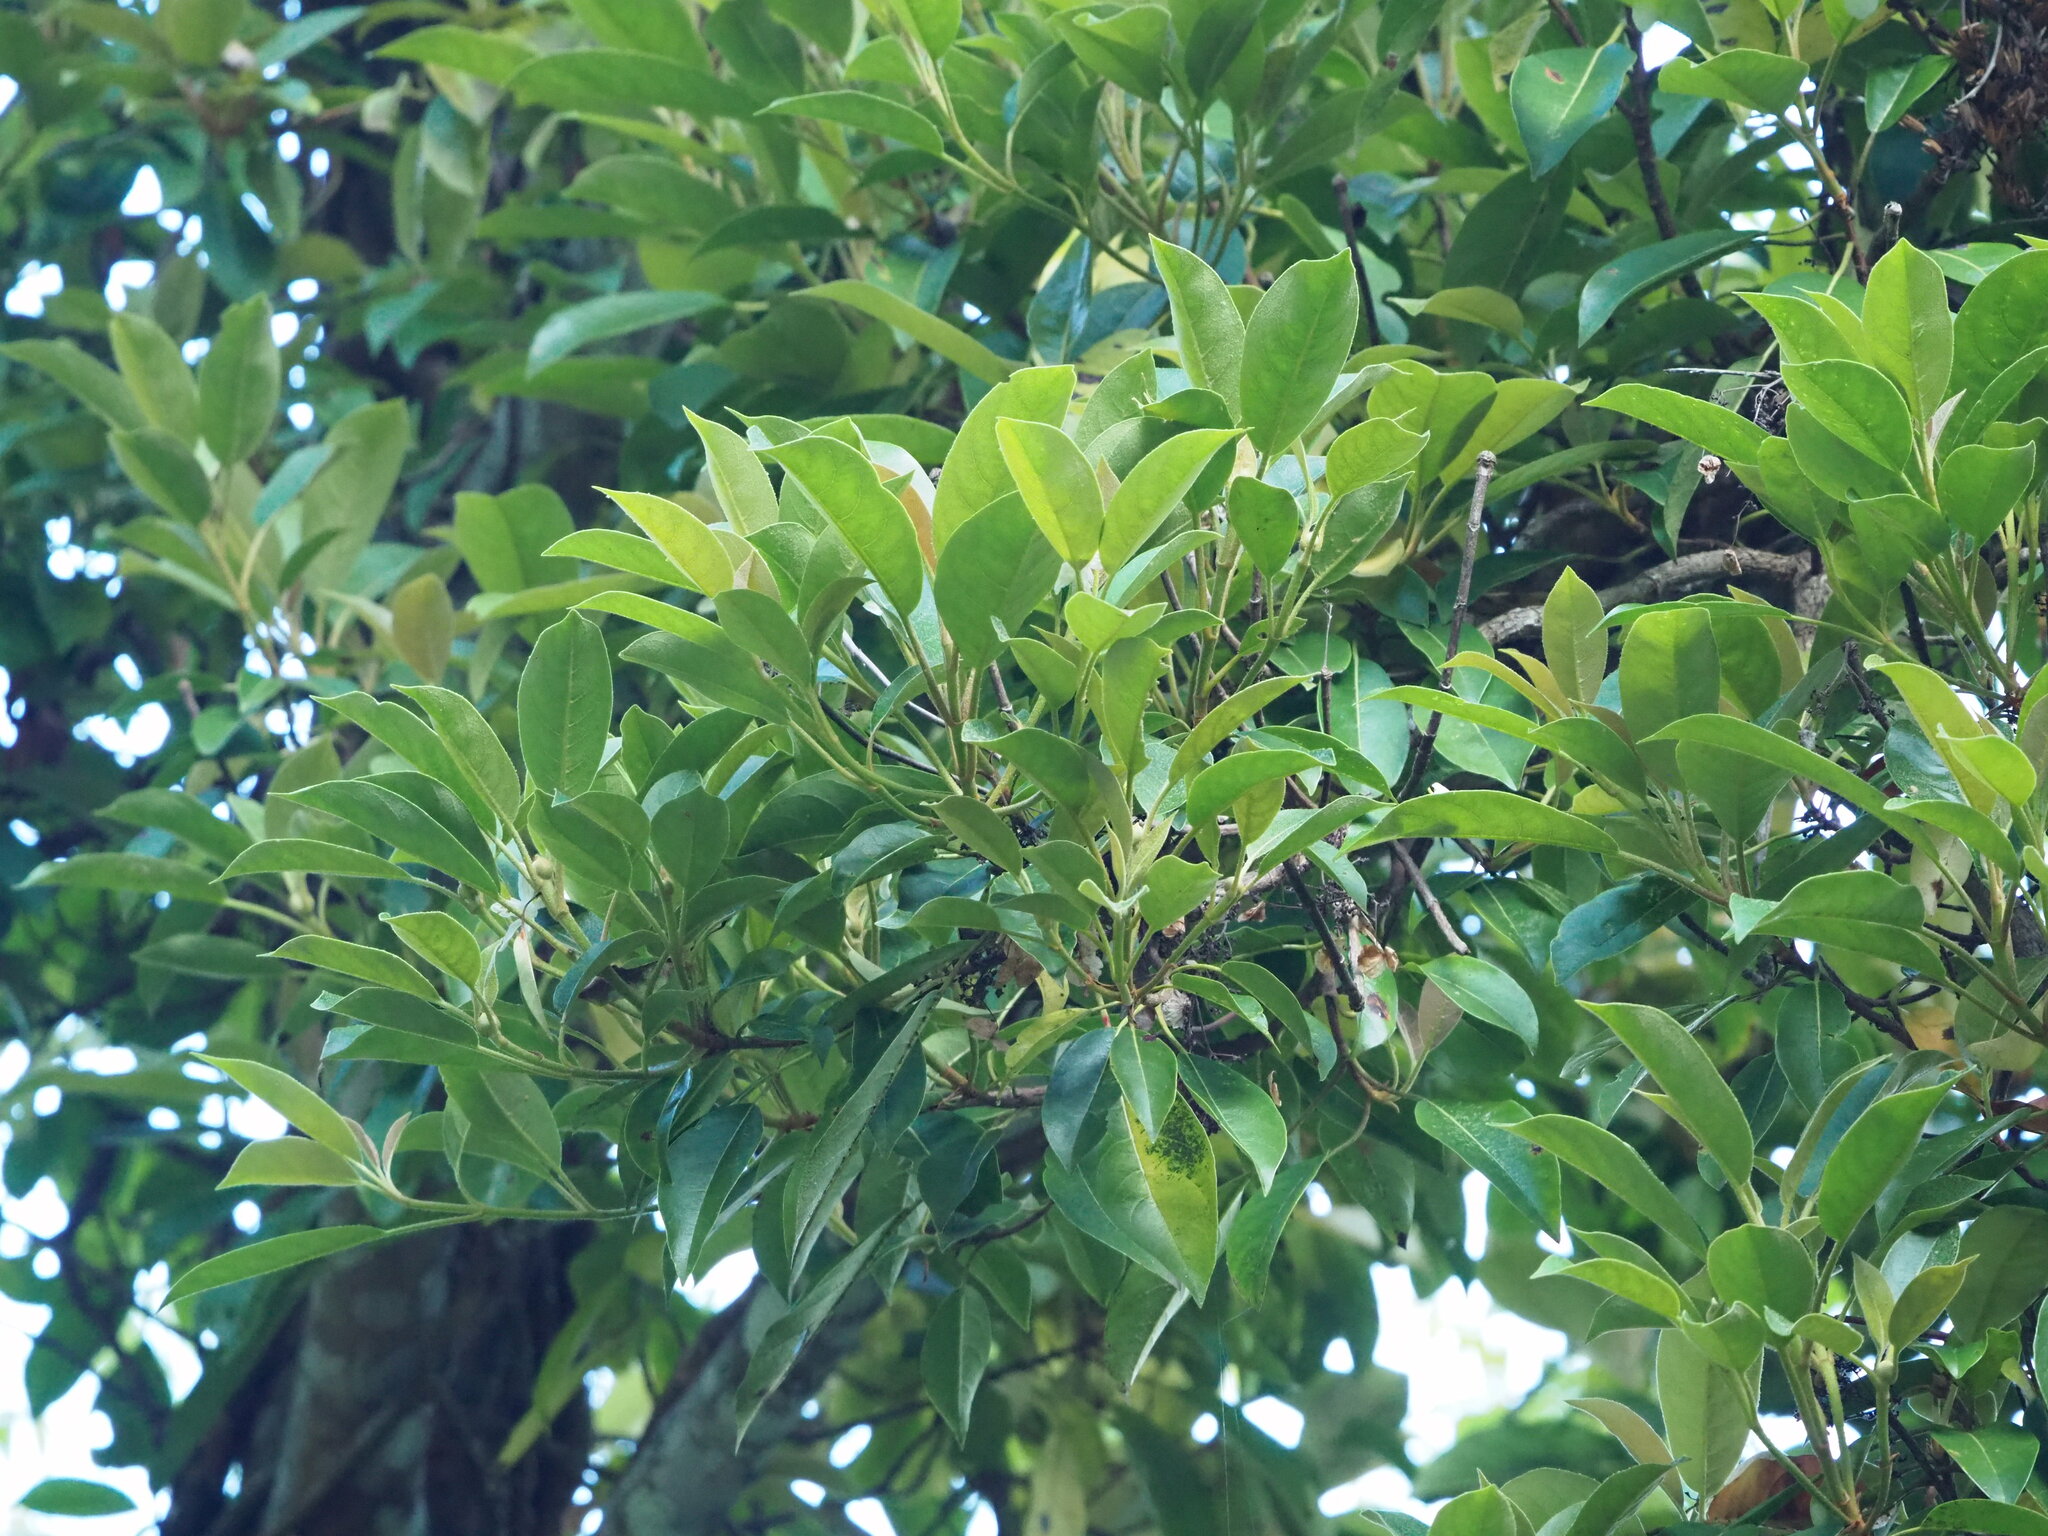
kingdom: Plantae
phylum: Tracheophyta
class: Magnoliopsida
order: Cornales
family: Hydrangeaceae
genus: Hydrangea
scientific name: Hydrangea integrifolia
